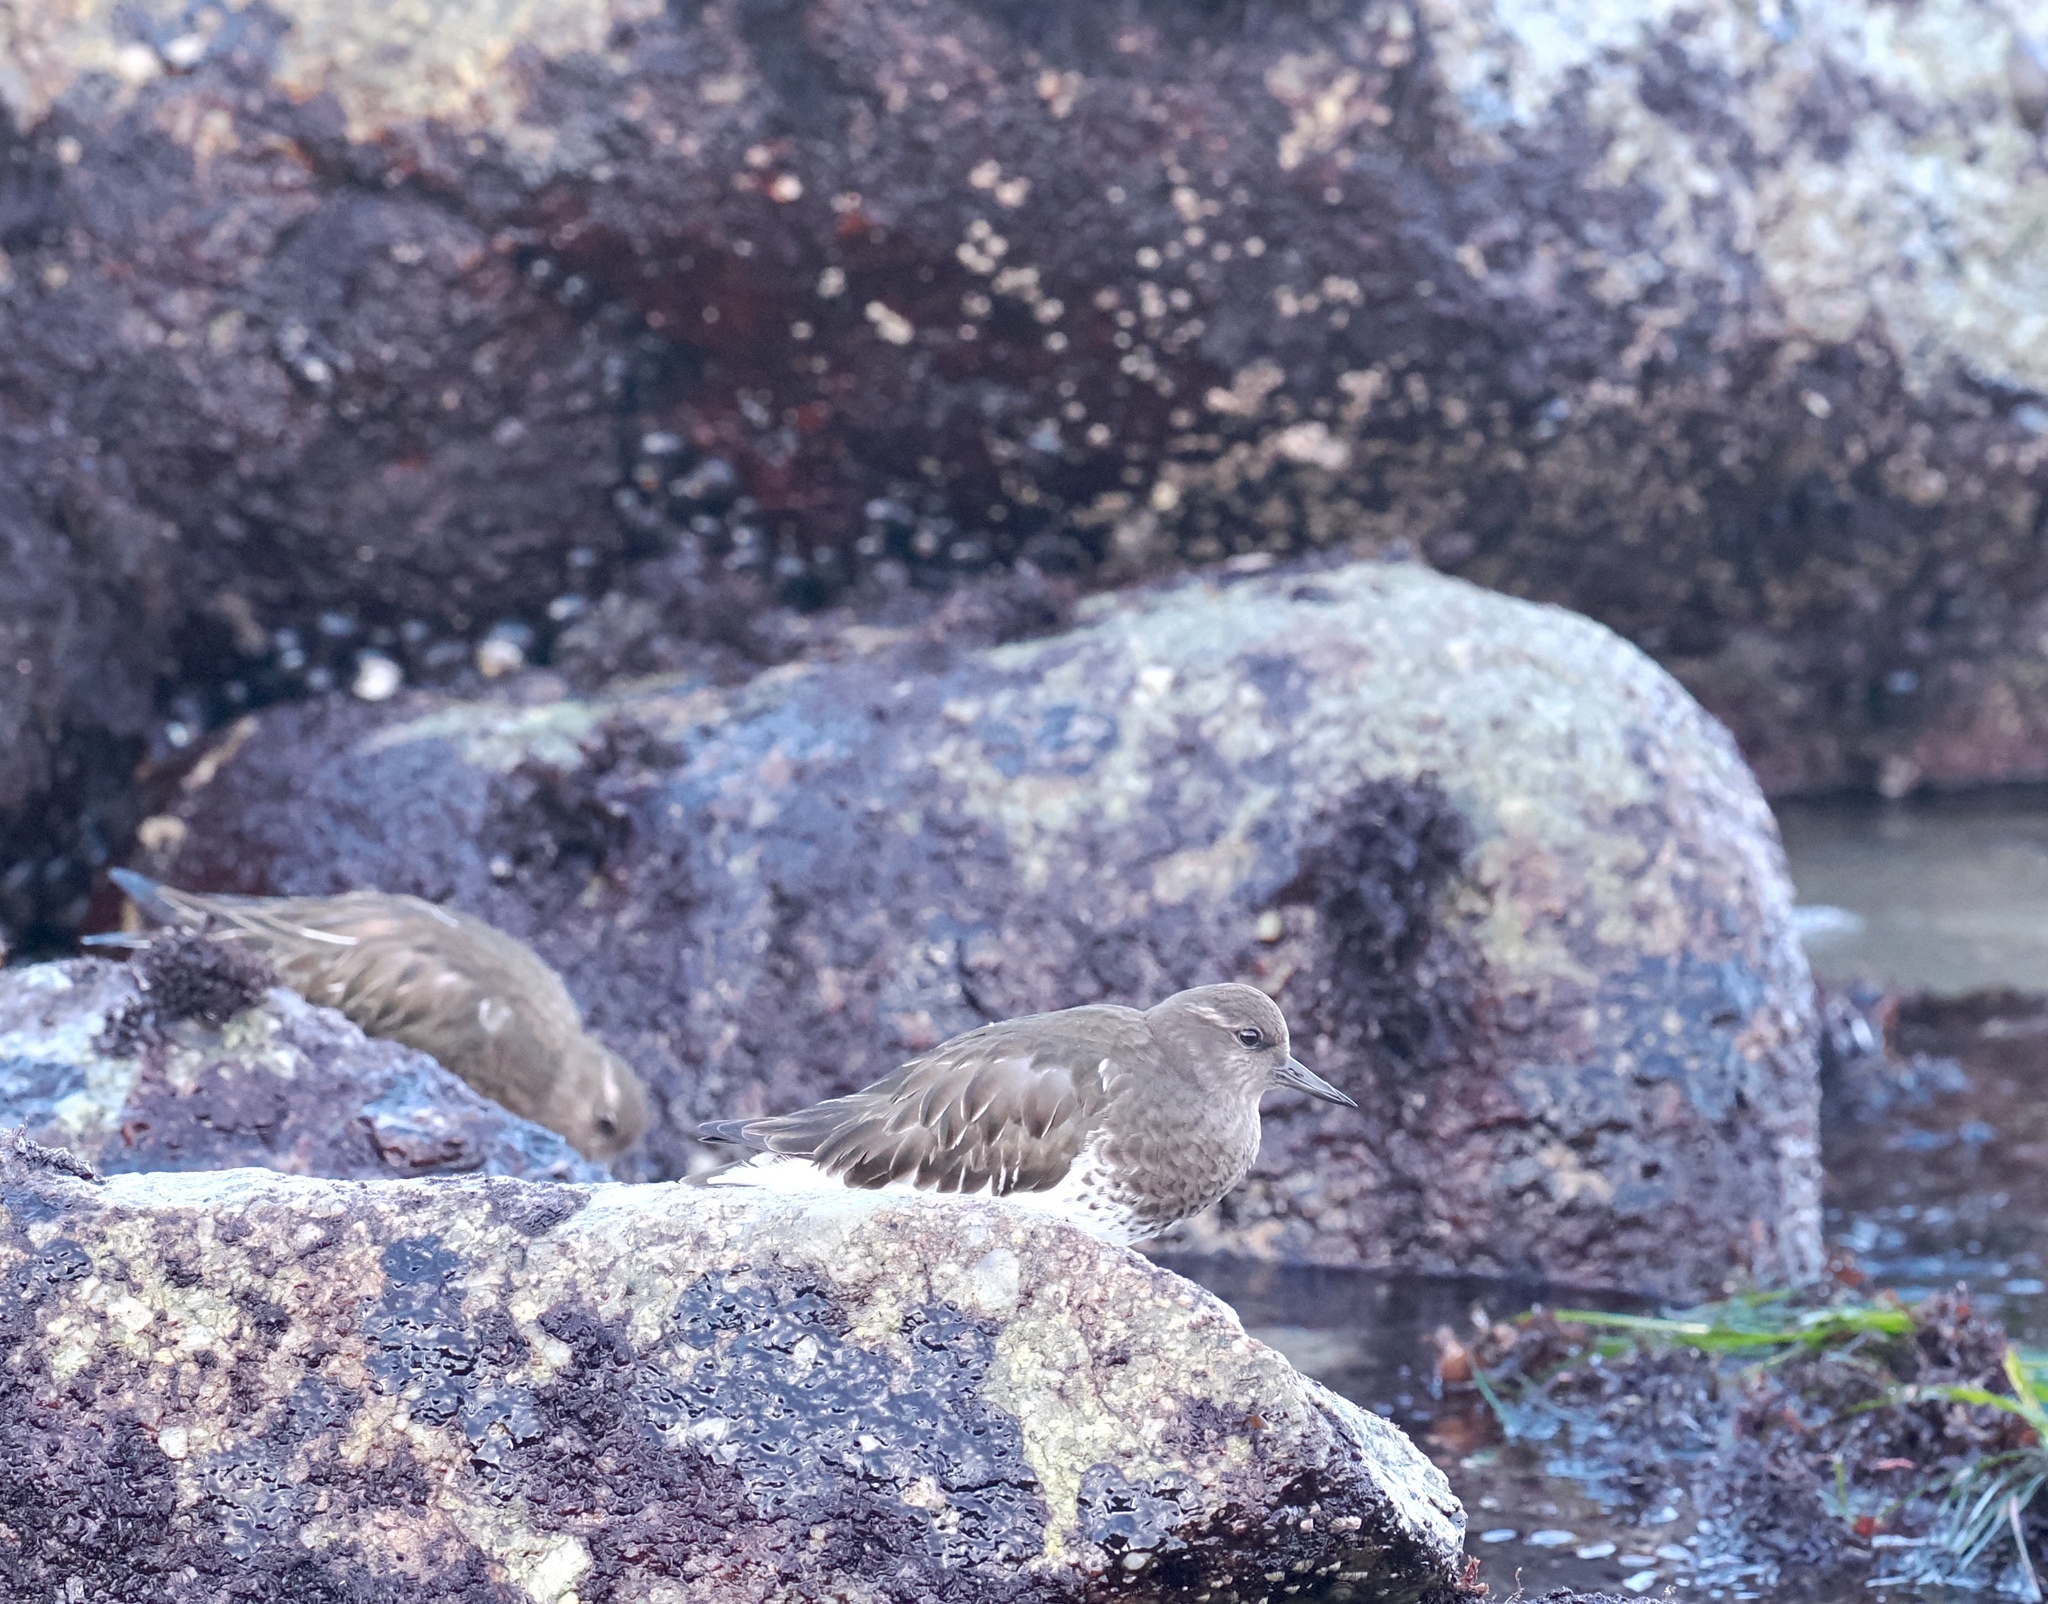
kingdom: Animalia
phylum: Chordata
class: Aves
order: Charadriiformes
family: Scolopacidae
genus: Arenaria
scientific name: Arenaria melanocephala
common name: Black turnstone
